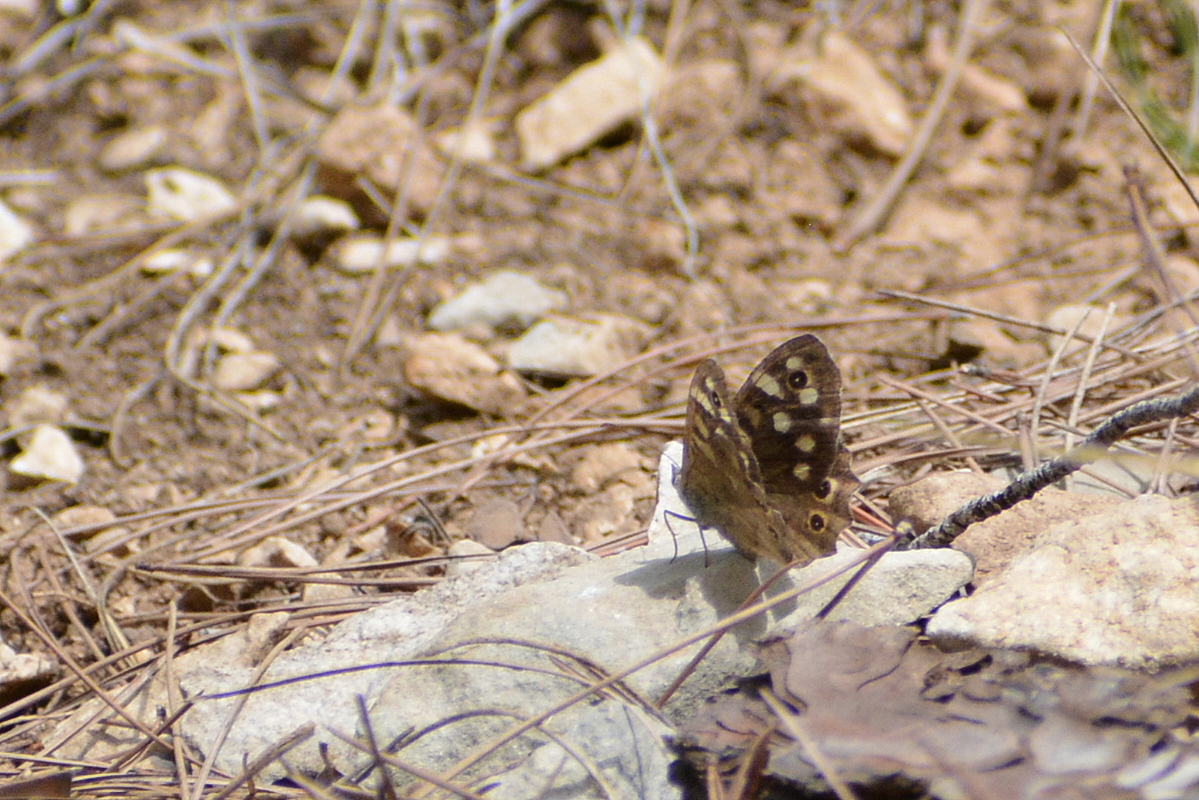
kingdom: Animalia
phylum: Arthropoda
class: Insecta
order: Lepidoptera
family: Nymphalidae
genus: Pararge
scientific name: Pararge aegeria
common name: Speckled wood
